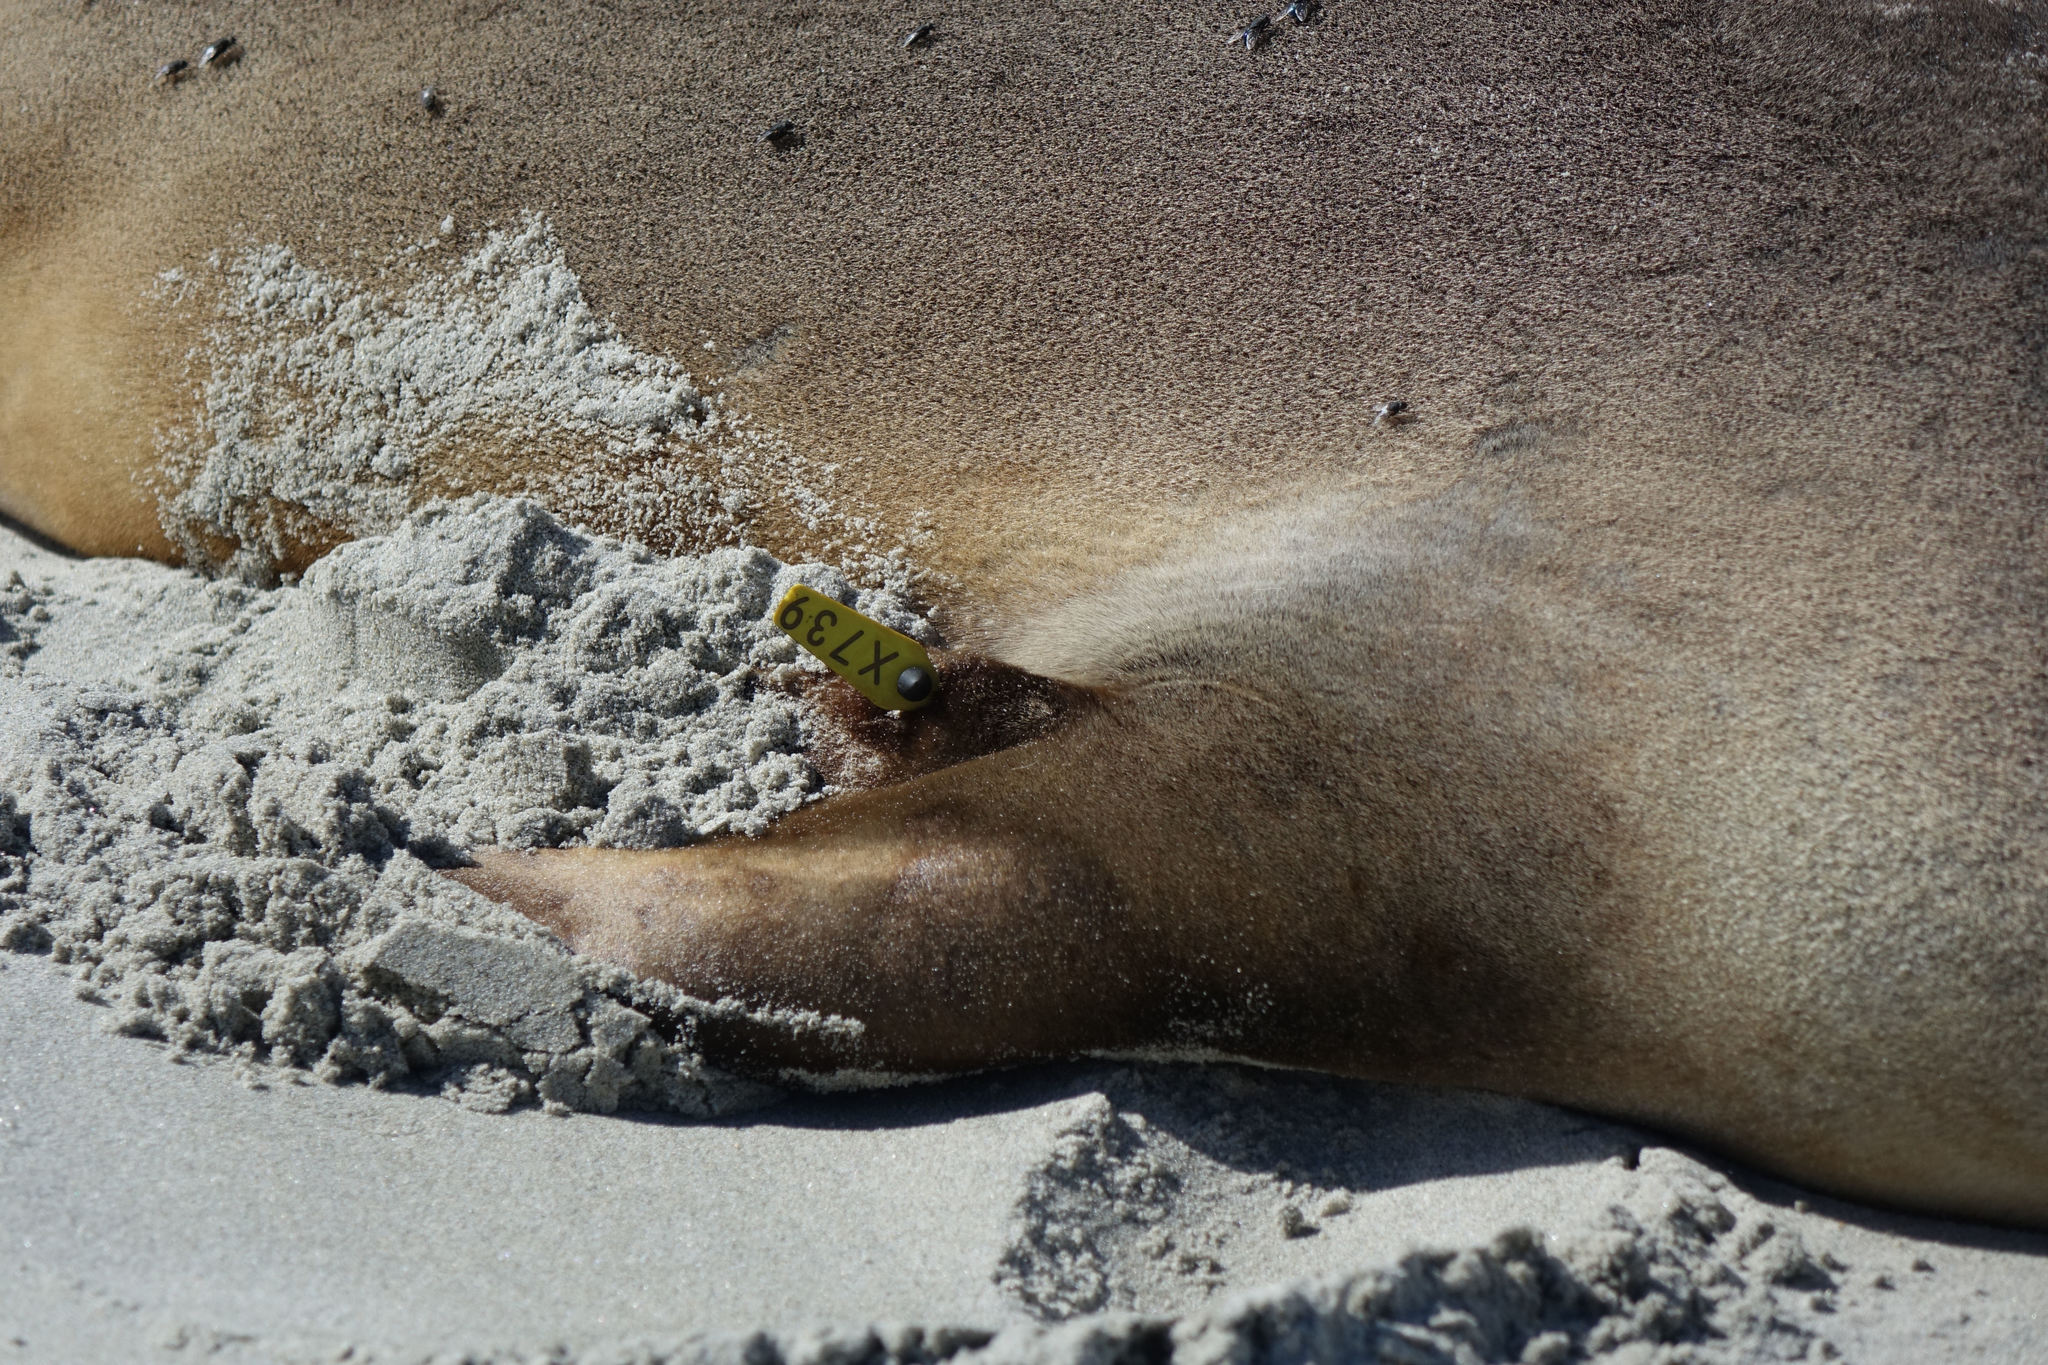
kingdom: Animalia
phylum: Chordata
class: Mammalia
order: Carnivora
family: Otariidae
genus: Phocarctos
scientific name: Phocarctos hookeri
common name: New zealand sea lion
